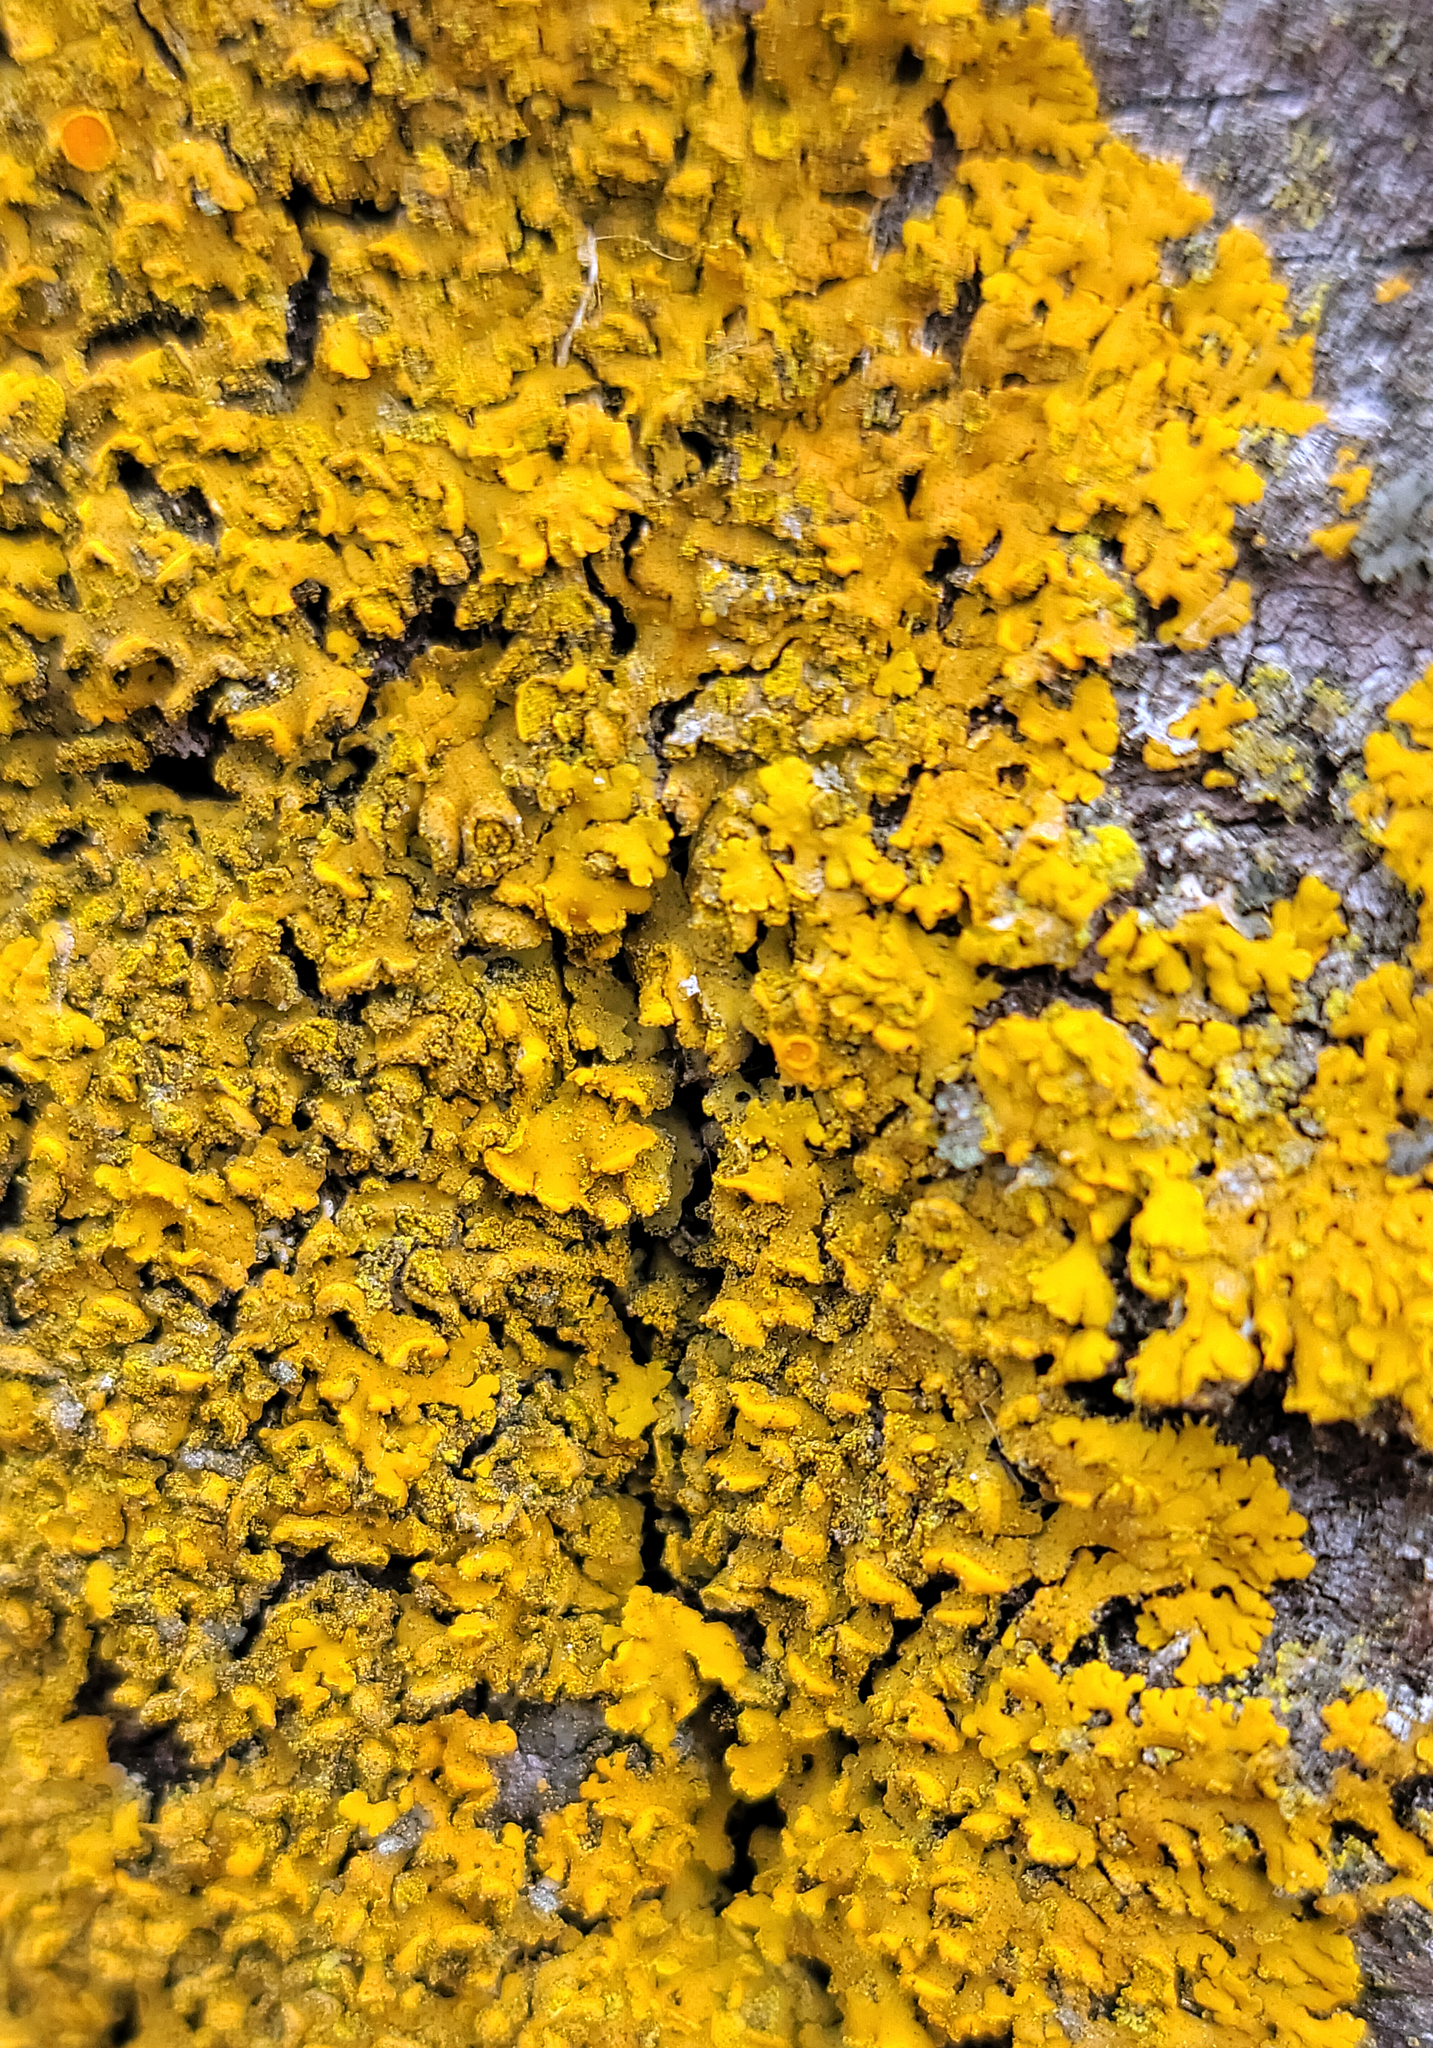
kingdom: Fungi
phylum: Ascomycota
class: Lecanoromycetes
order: Teloschistales
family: Teloschistaceae
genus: Oxneria
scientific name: Oxneria fallax
